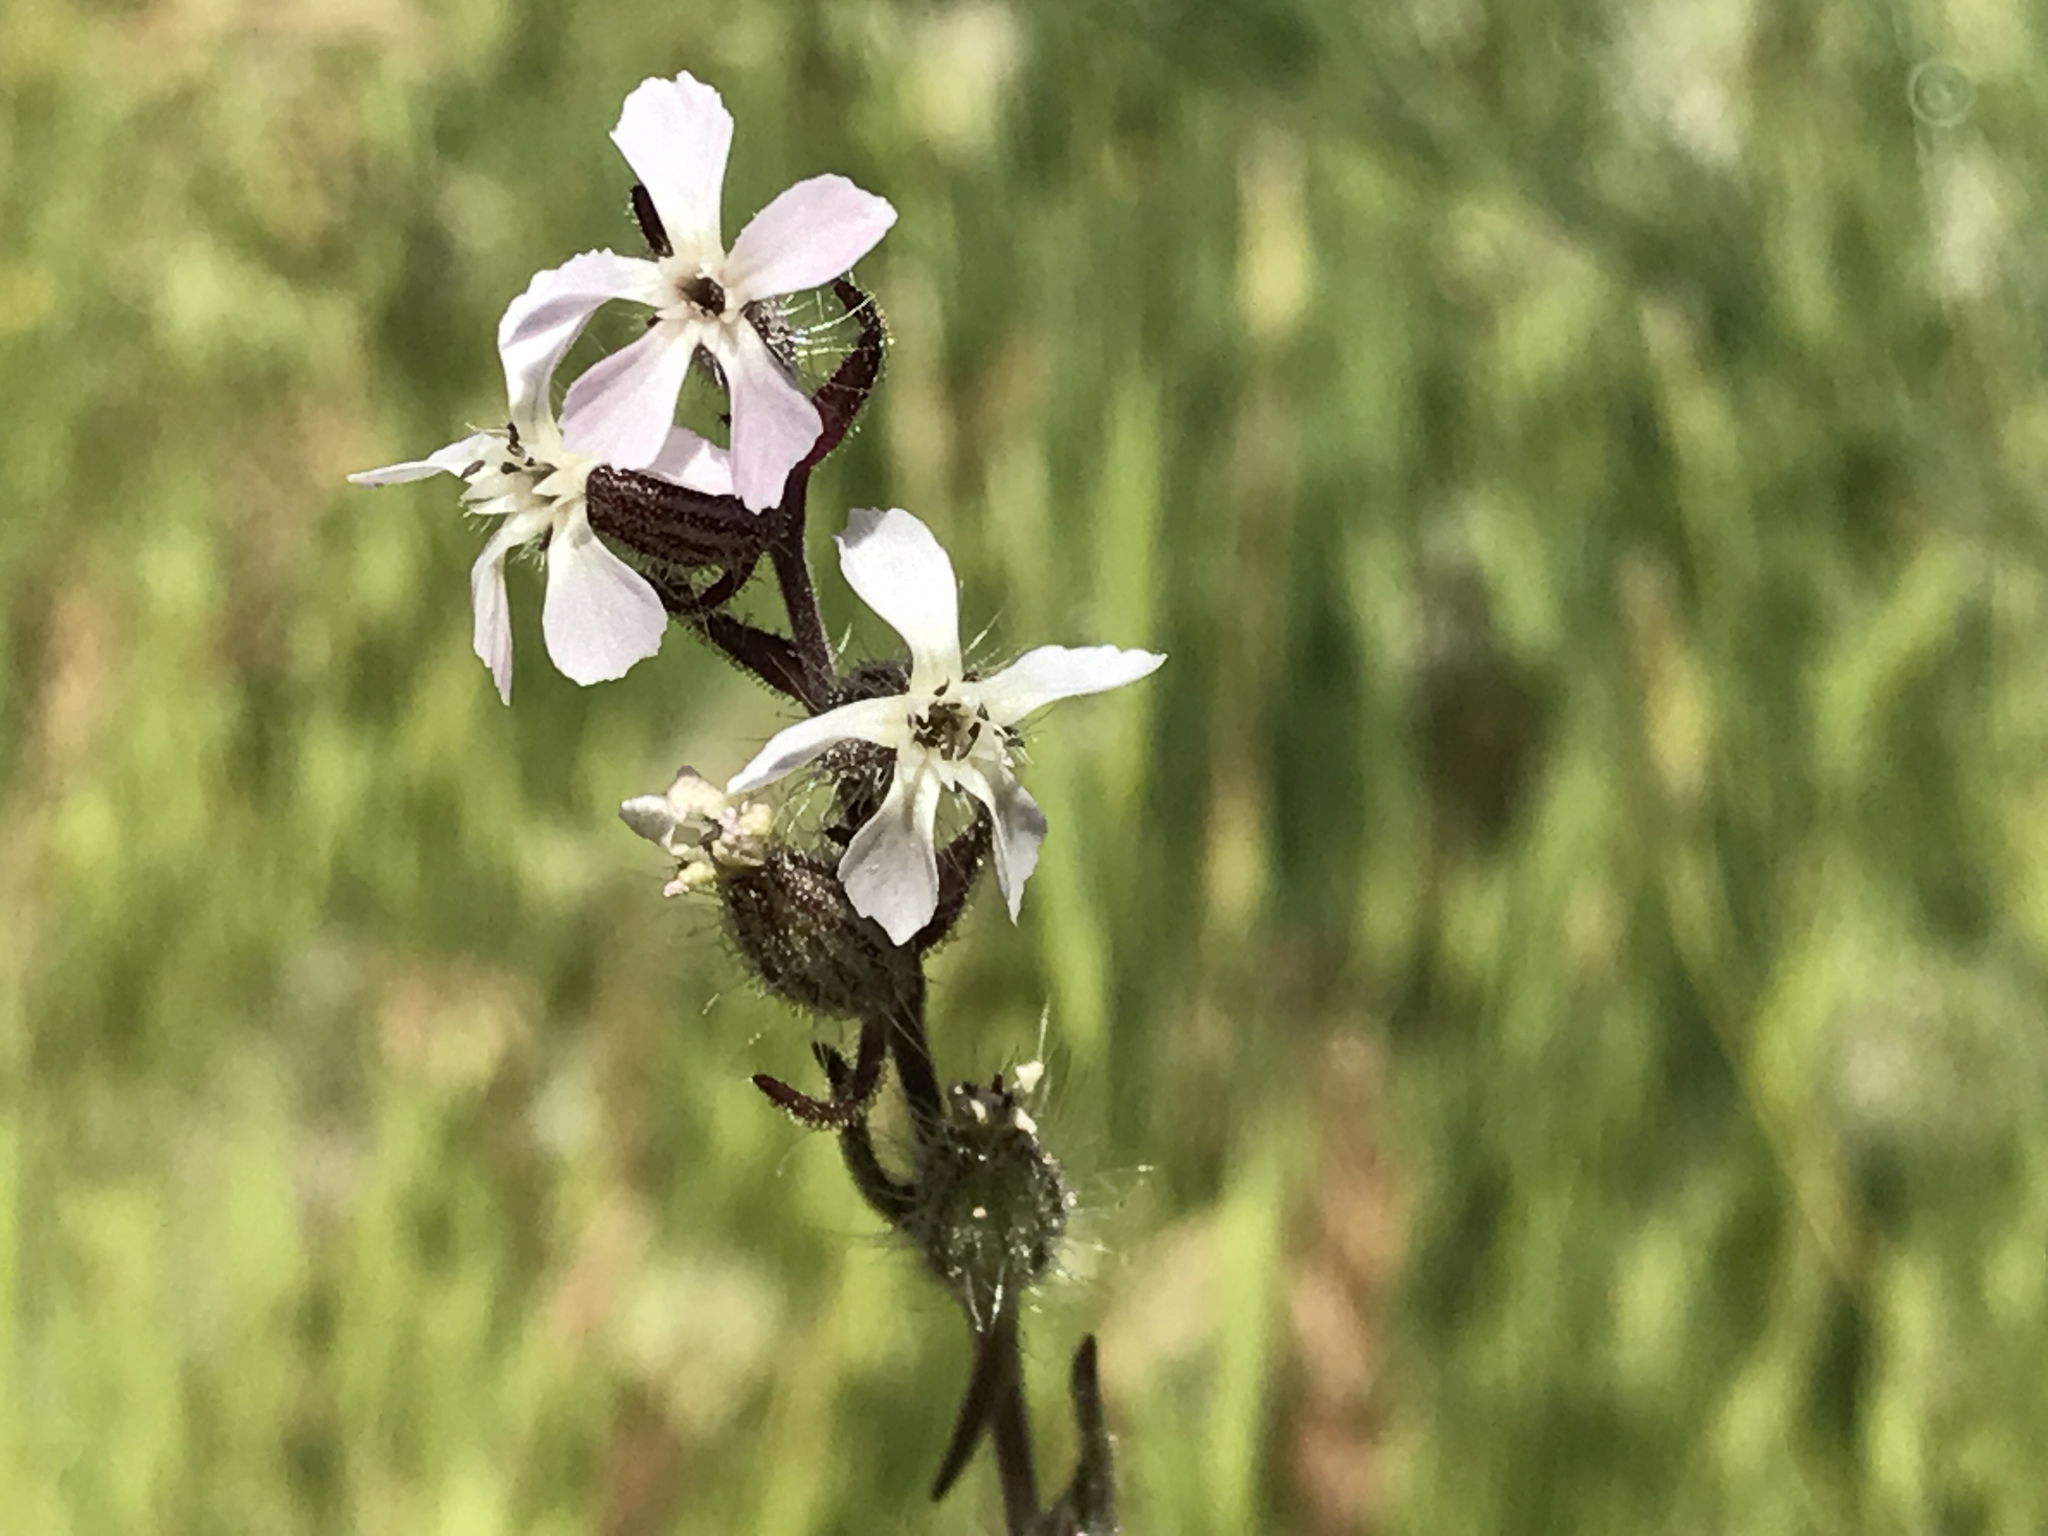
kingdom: Plantae
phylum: Tracheophyta
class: Magnoliopsida
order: Caryophyllales
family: Caryophyllaceae
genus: Silene
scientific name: Silene gallica
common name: Small-flowered catchfly
